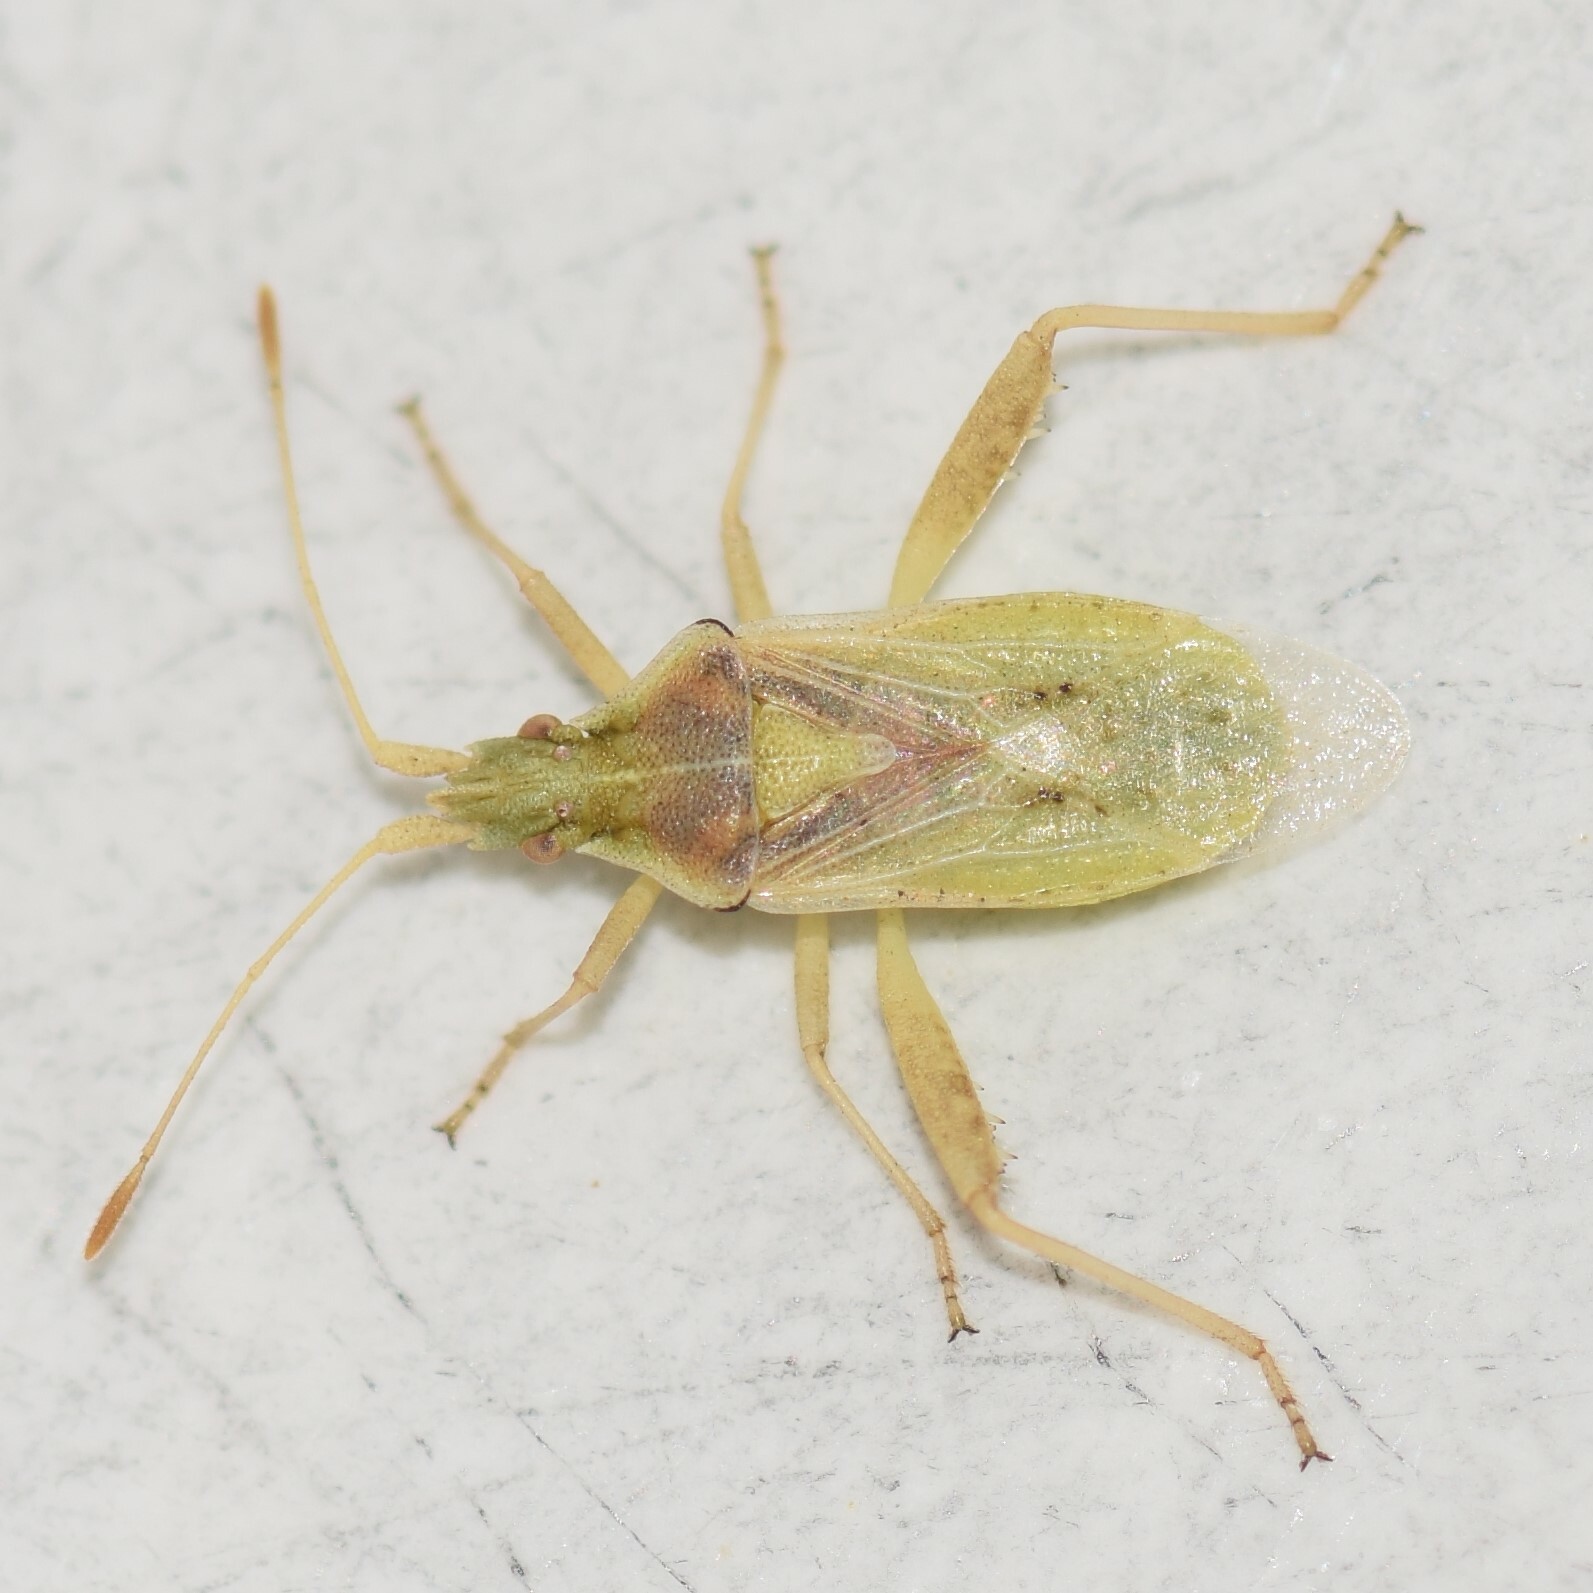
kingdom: Animalia
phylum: Arthropoda
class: Insecta
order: Hemiptera
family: Rhopalidae
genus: Harmostes
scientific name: Harmostes reflexulus
